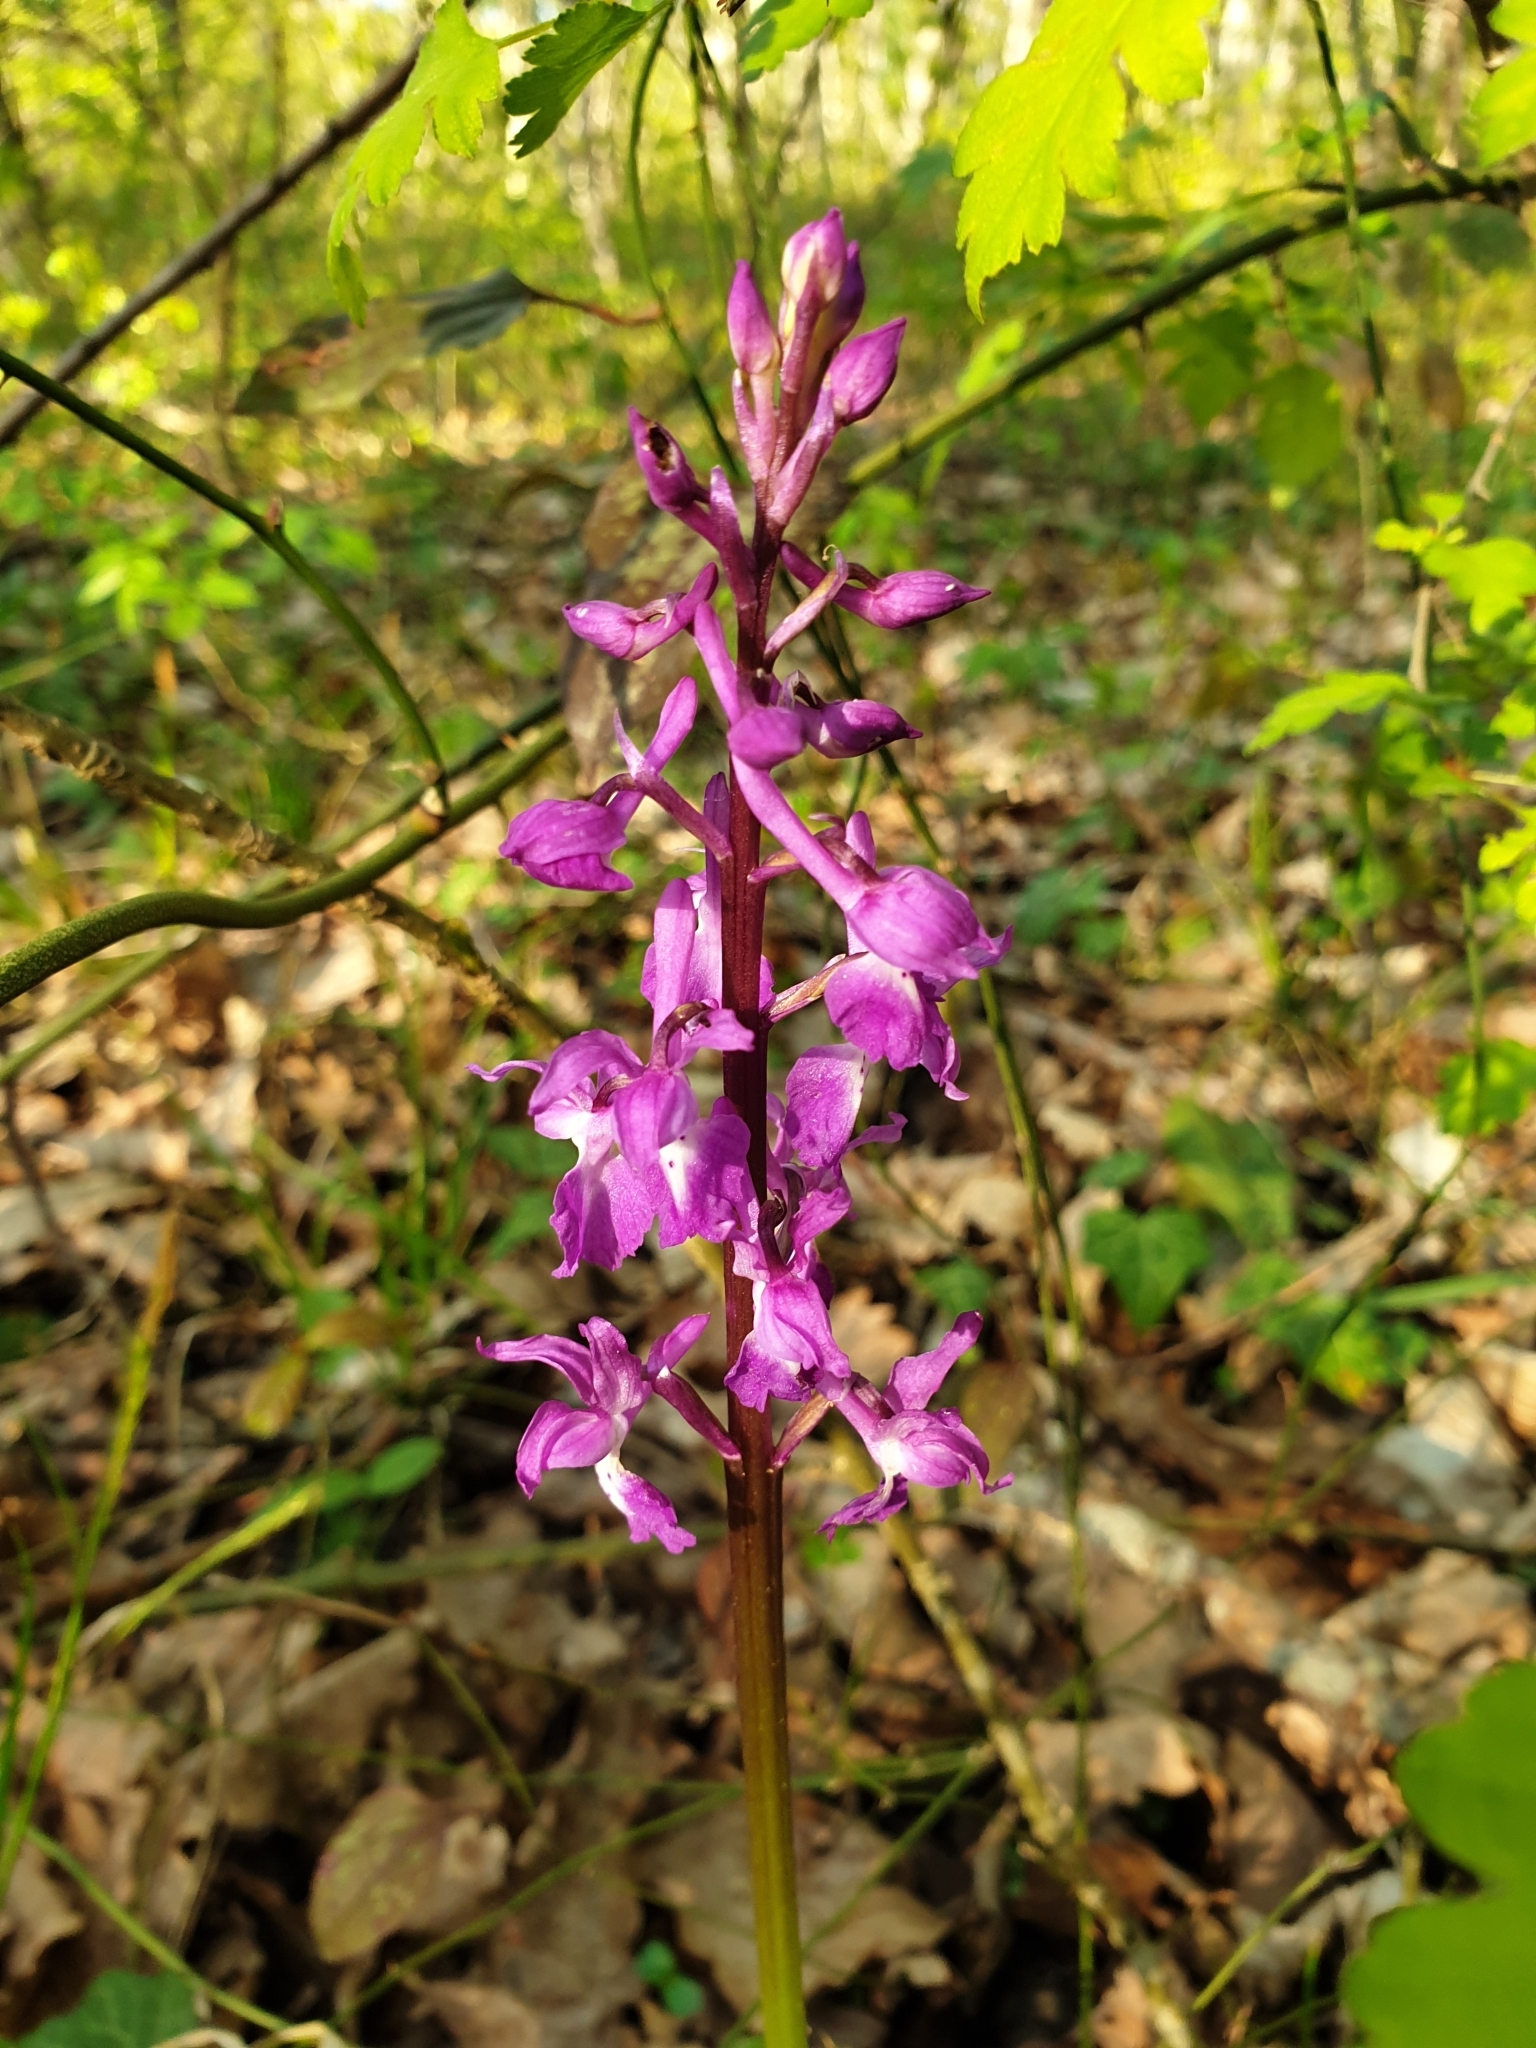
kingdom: Plantae
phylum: Tracheophyta
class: Liliopsida
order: Asparagales
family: Orchidaceae
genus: Orchis
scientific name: Orchis mascula
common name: Early-purple orchid
